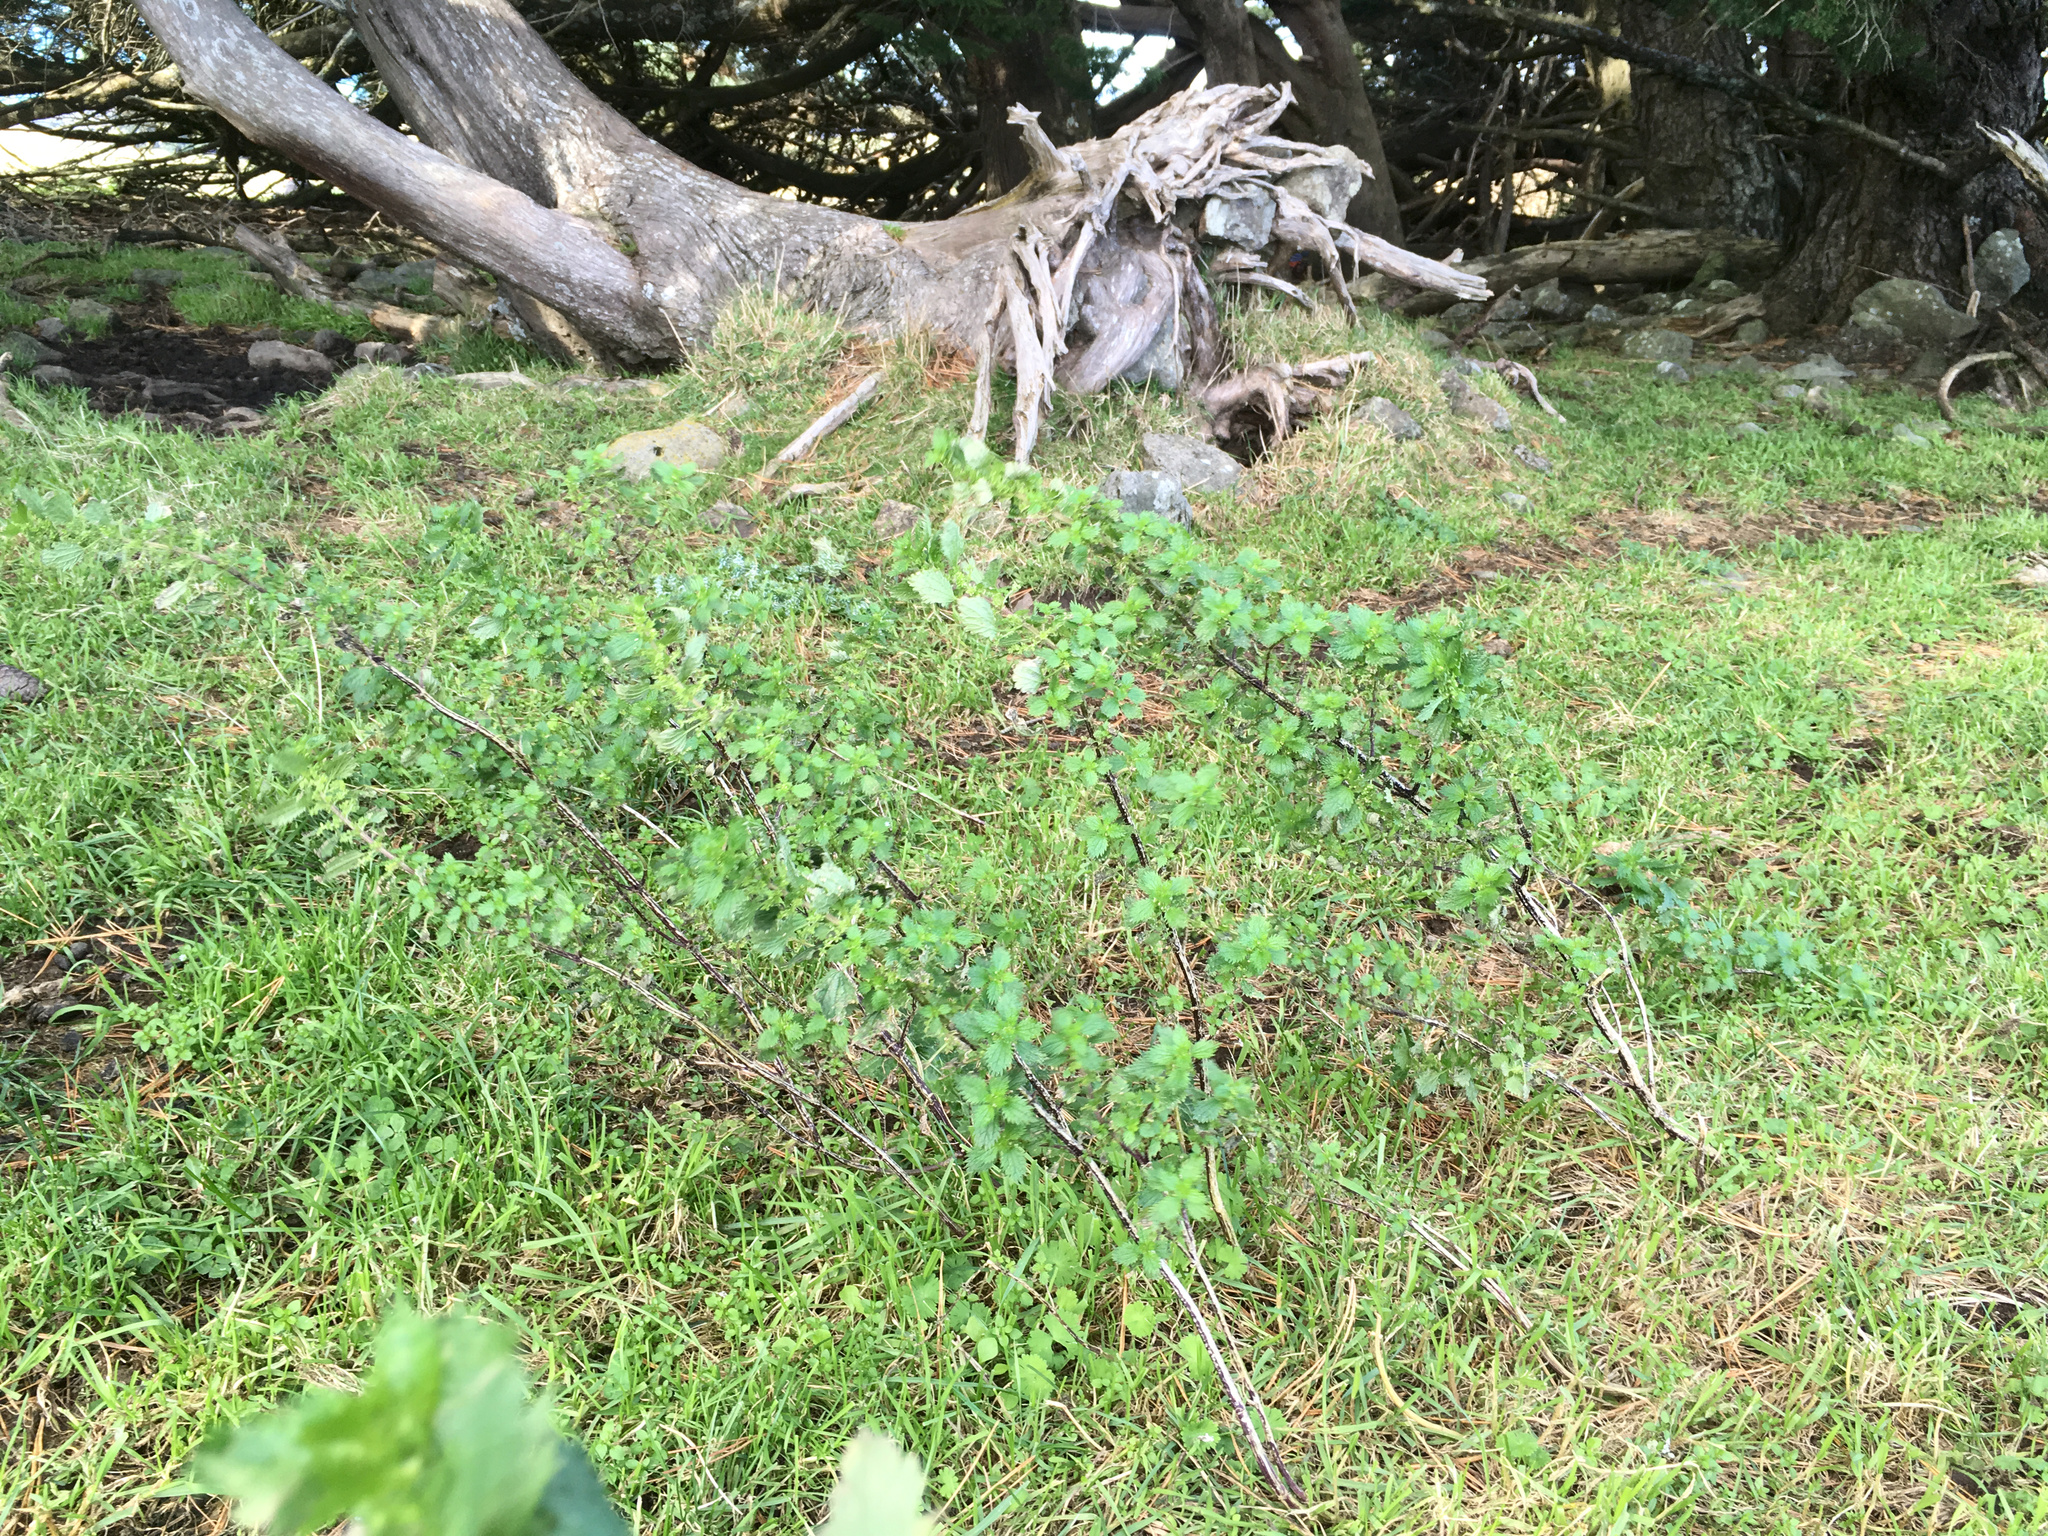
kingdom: Plantae
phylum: Tracheophyta
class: Magnoliopsida
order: Rosales
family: Urticaceae
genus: Urtica
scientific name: Urtica urens
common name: Dwarf nettle
